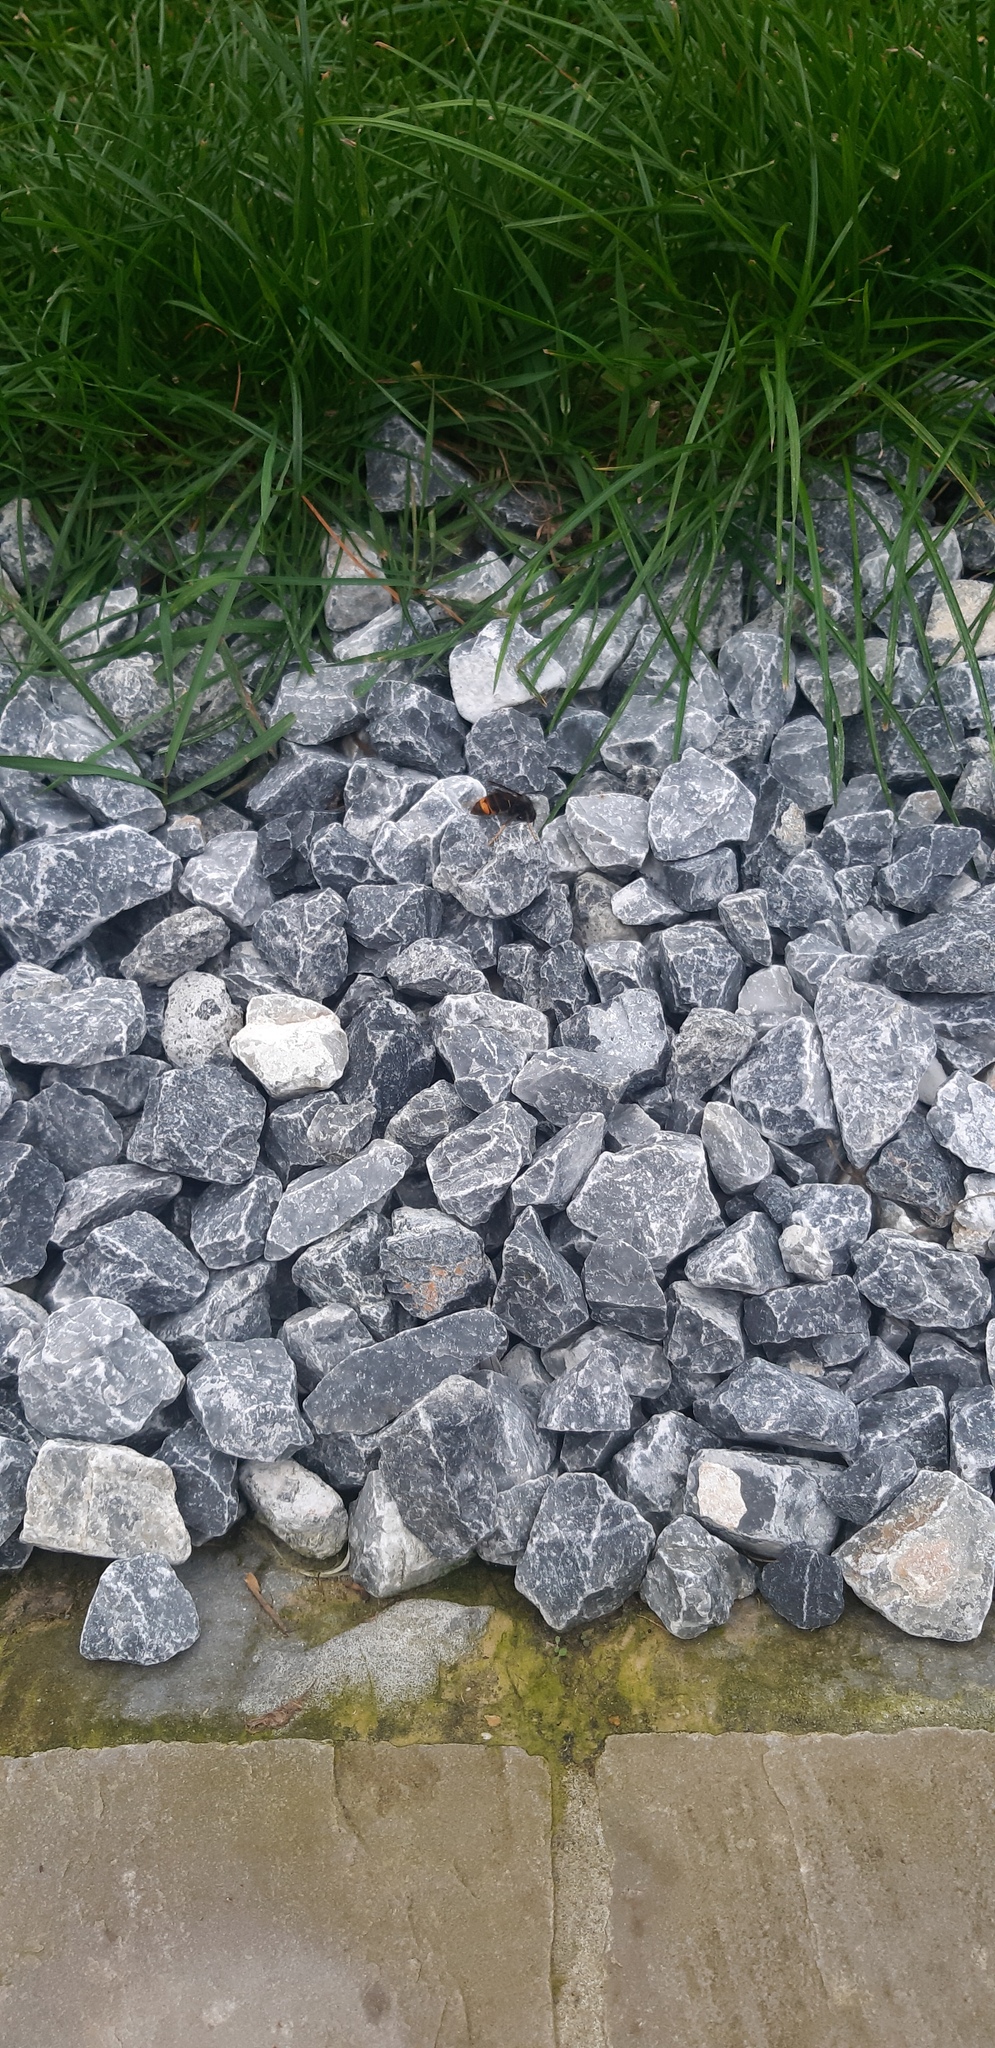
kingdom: Animalia
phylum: Arthropoda
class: Insecta
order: Hymenoptera
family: Vespidae
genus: Vespa
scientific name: Vespa velutina
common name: Asian hornet
